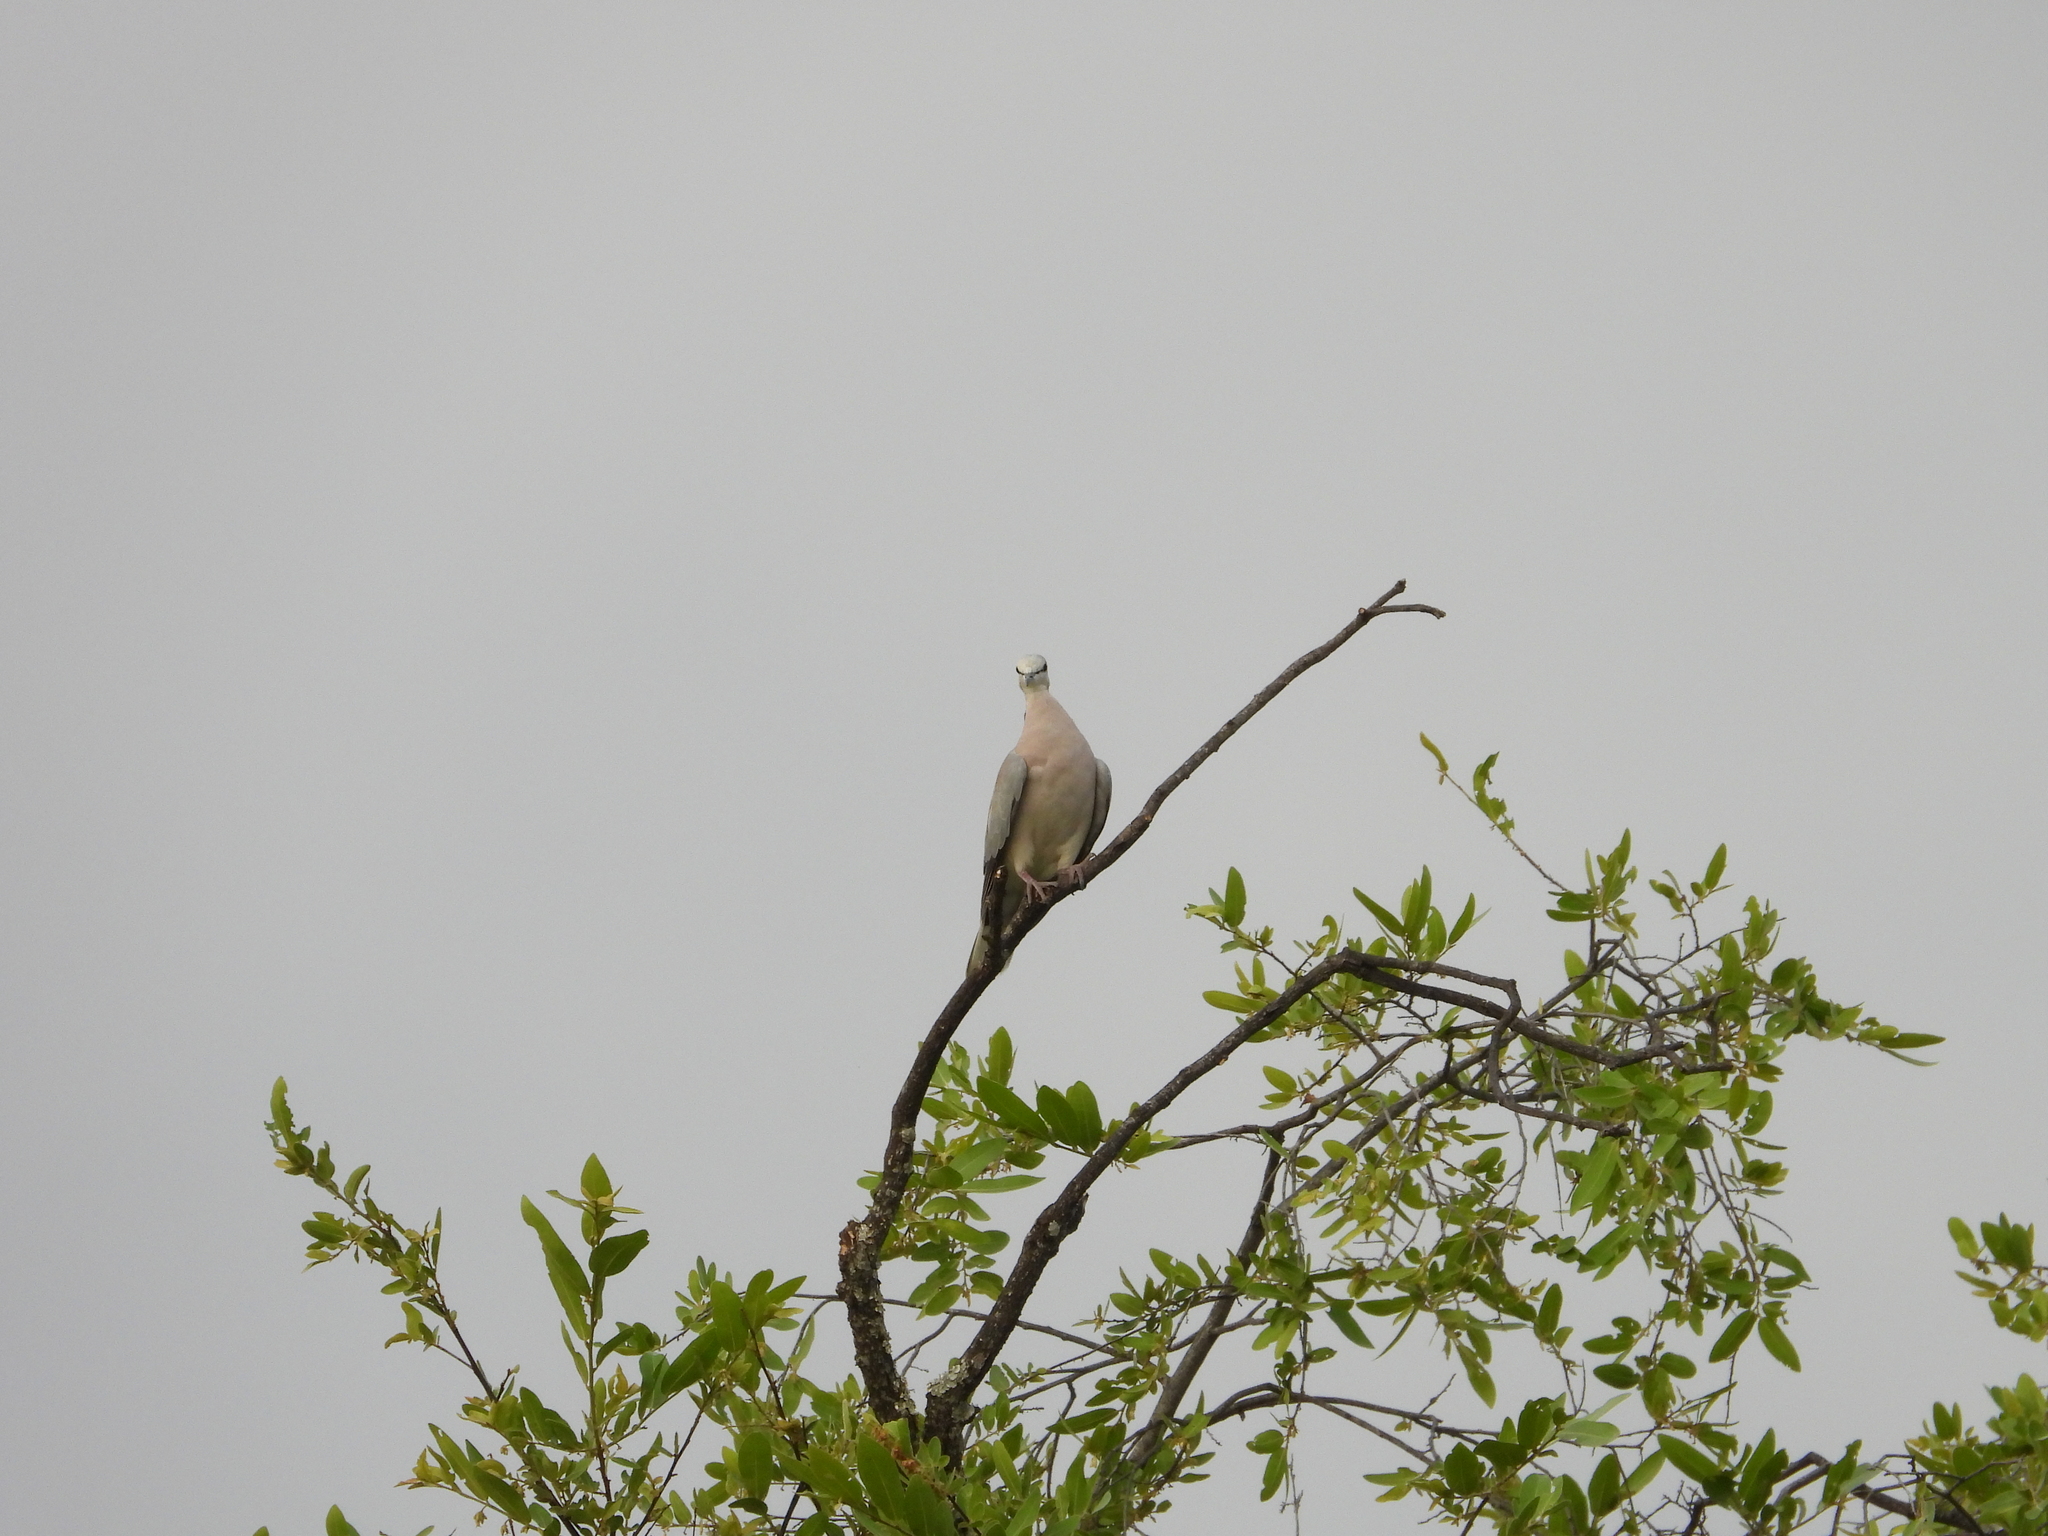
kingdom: Animalia
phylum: Chordata
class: Aves
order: Columbiformes
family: Columbidae
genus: Streptopelia
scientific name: Streptopelia capicola
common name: Ring-necked dove
